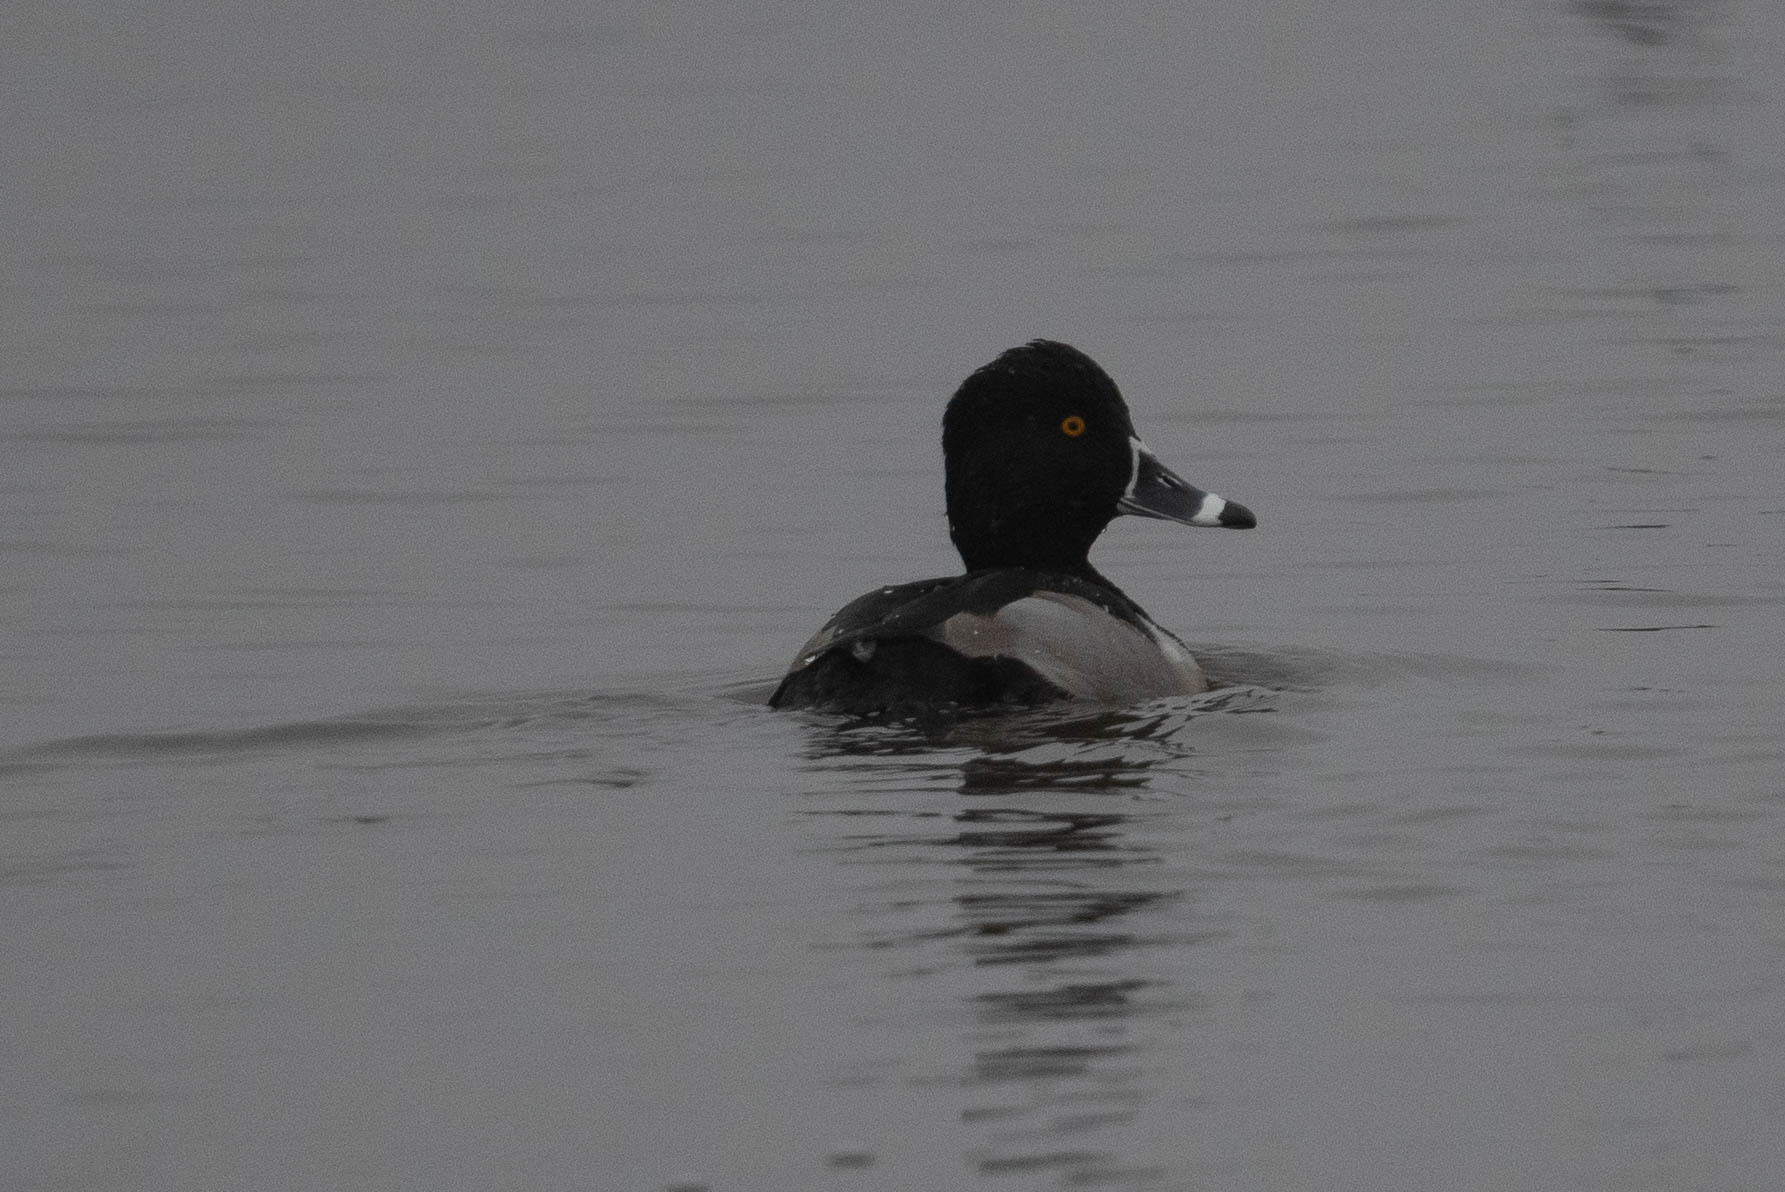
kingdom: Animalia
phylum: Chordata
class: Aves
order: Anseriformes
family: Anatidae
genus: Aythya
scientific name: Aythya collaris
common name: Ring-necked duck
